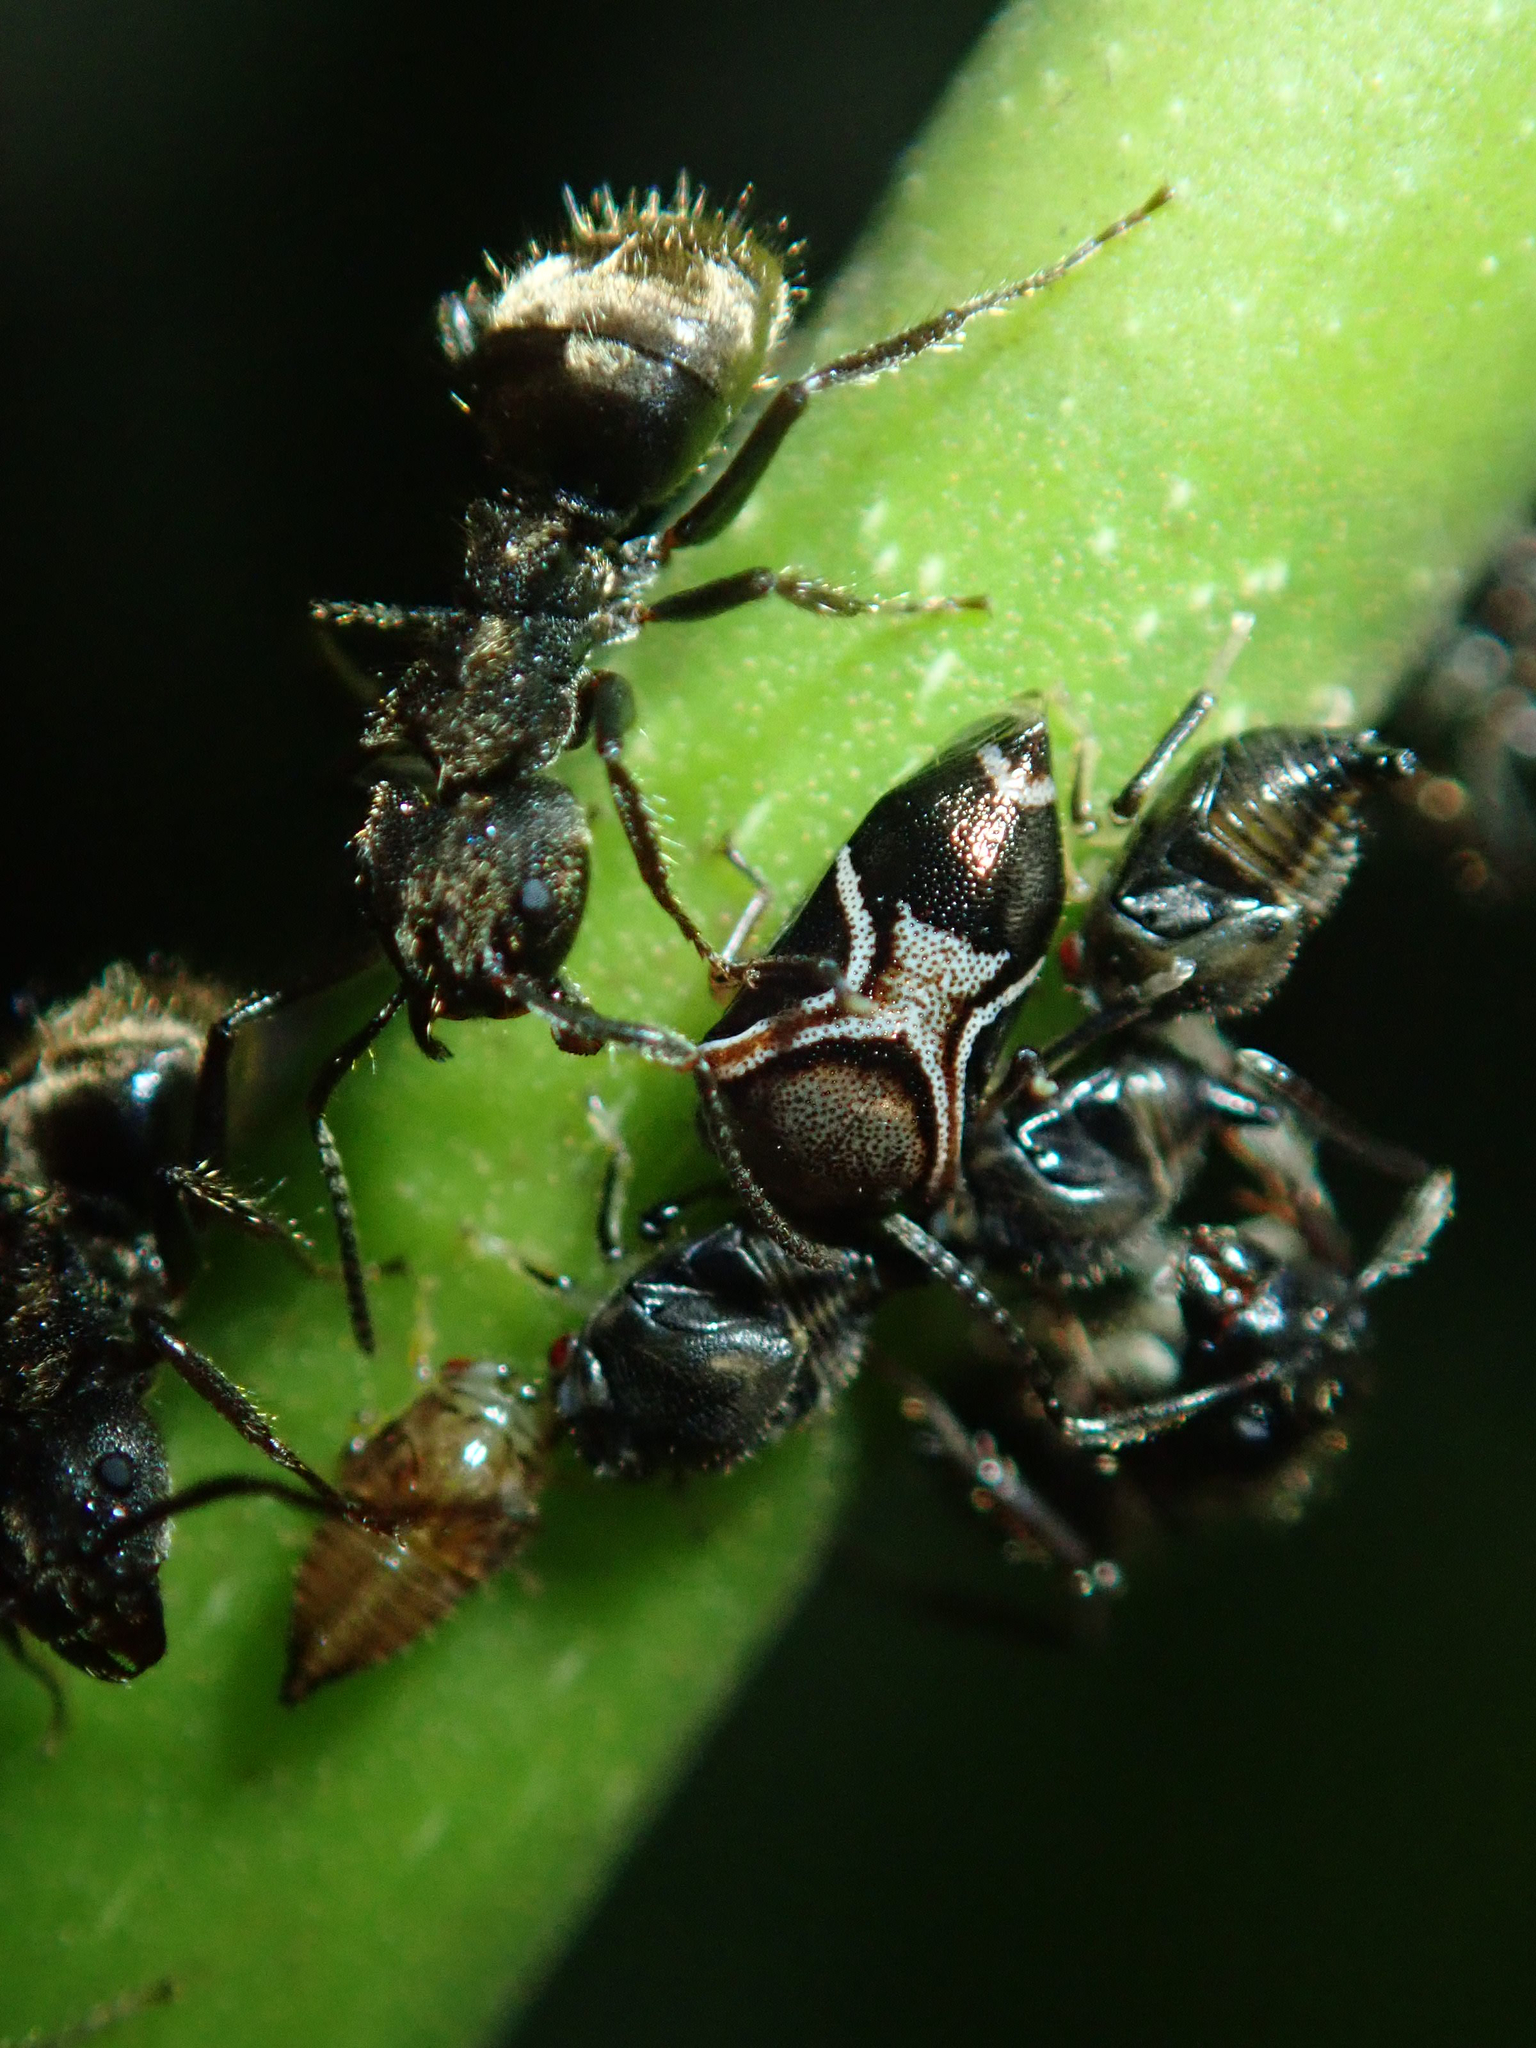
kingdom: Animalia
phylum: Arthropoda
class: Insecta
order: Hymenoptera
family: Formicidae
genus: Dolichoderus
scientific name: Dolichoderus bispinosus
